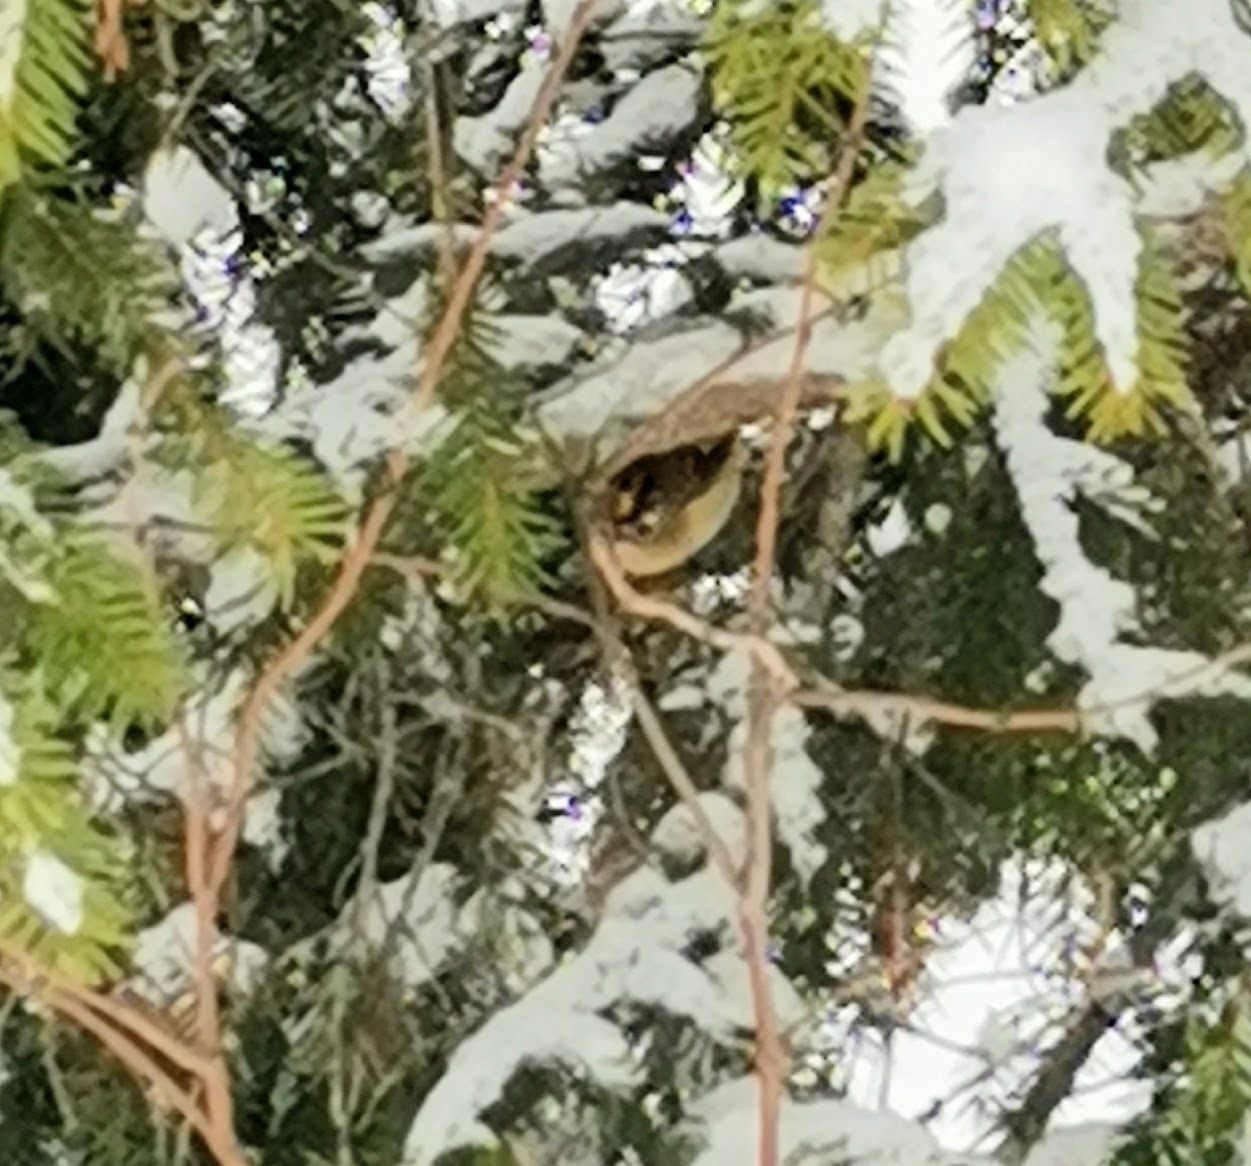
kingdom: Animalia
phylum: Chordata
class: Aves
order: Passeriformes
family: Regulidae
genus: Regulus
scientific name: Regulus regulus
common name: Goldcrest
